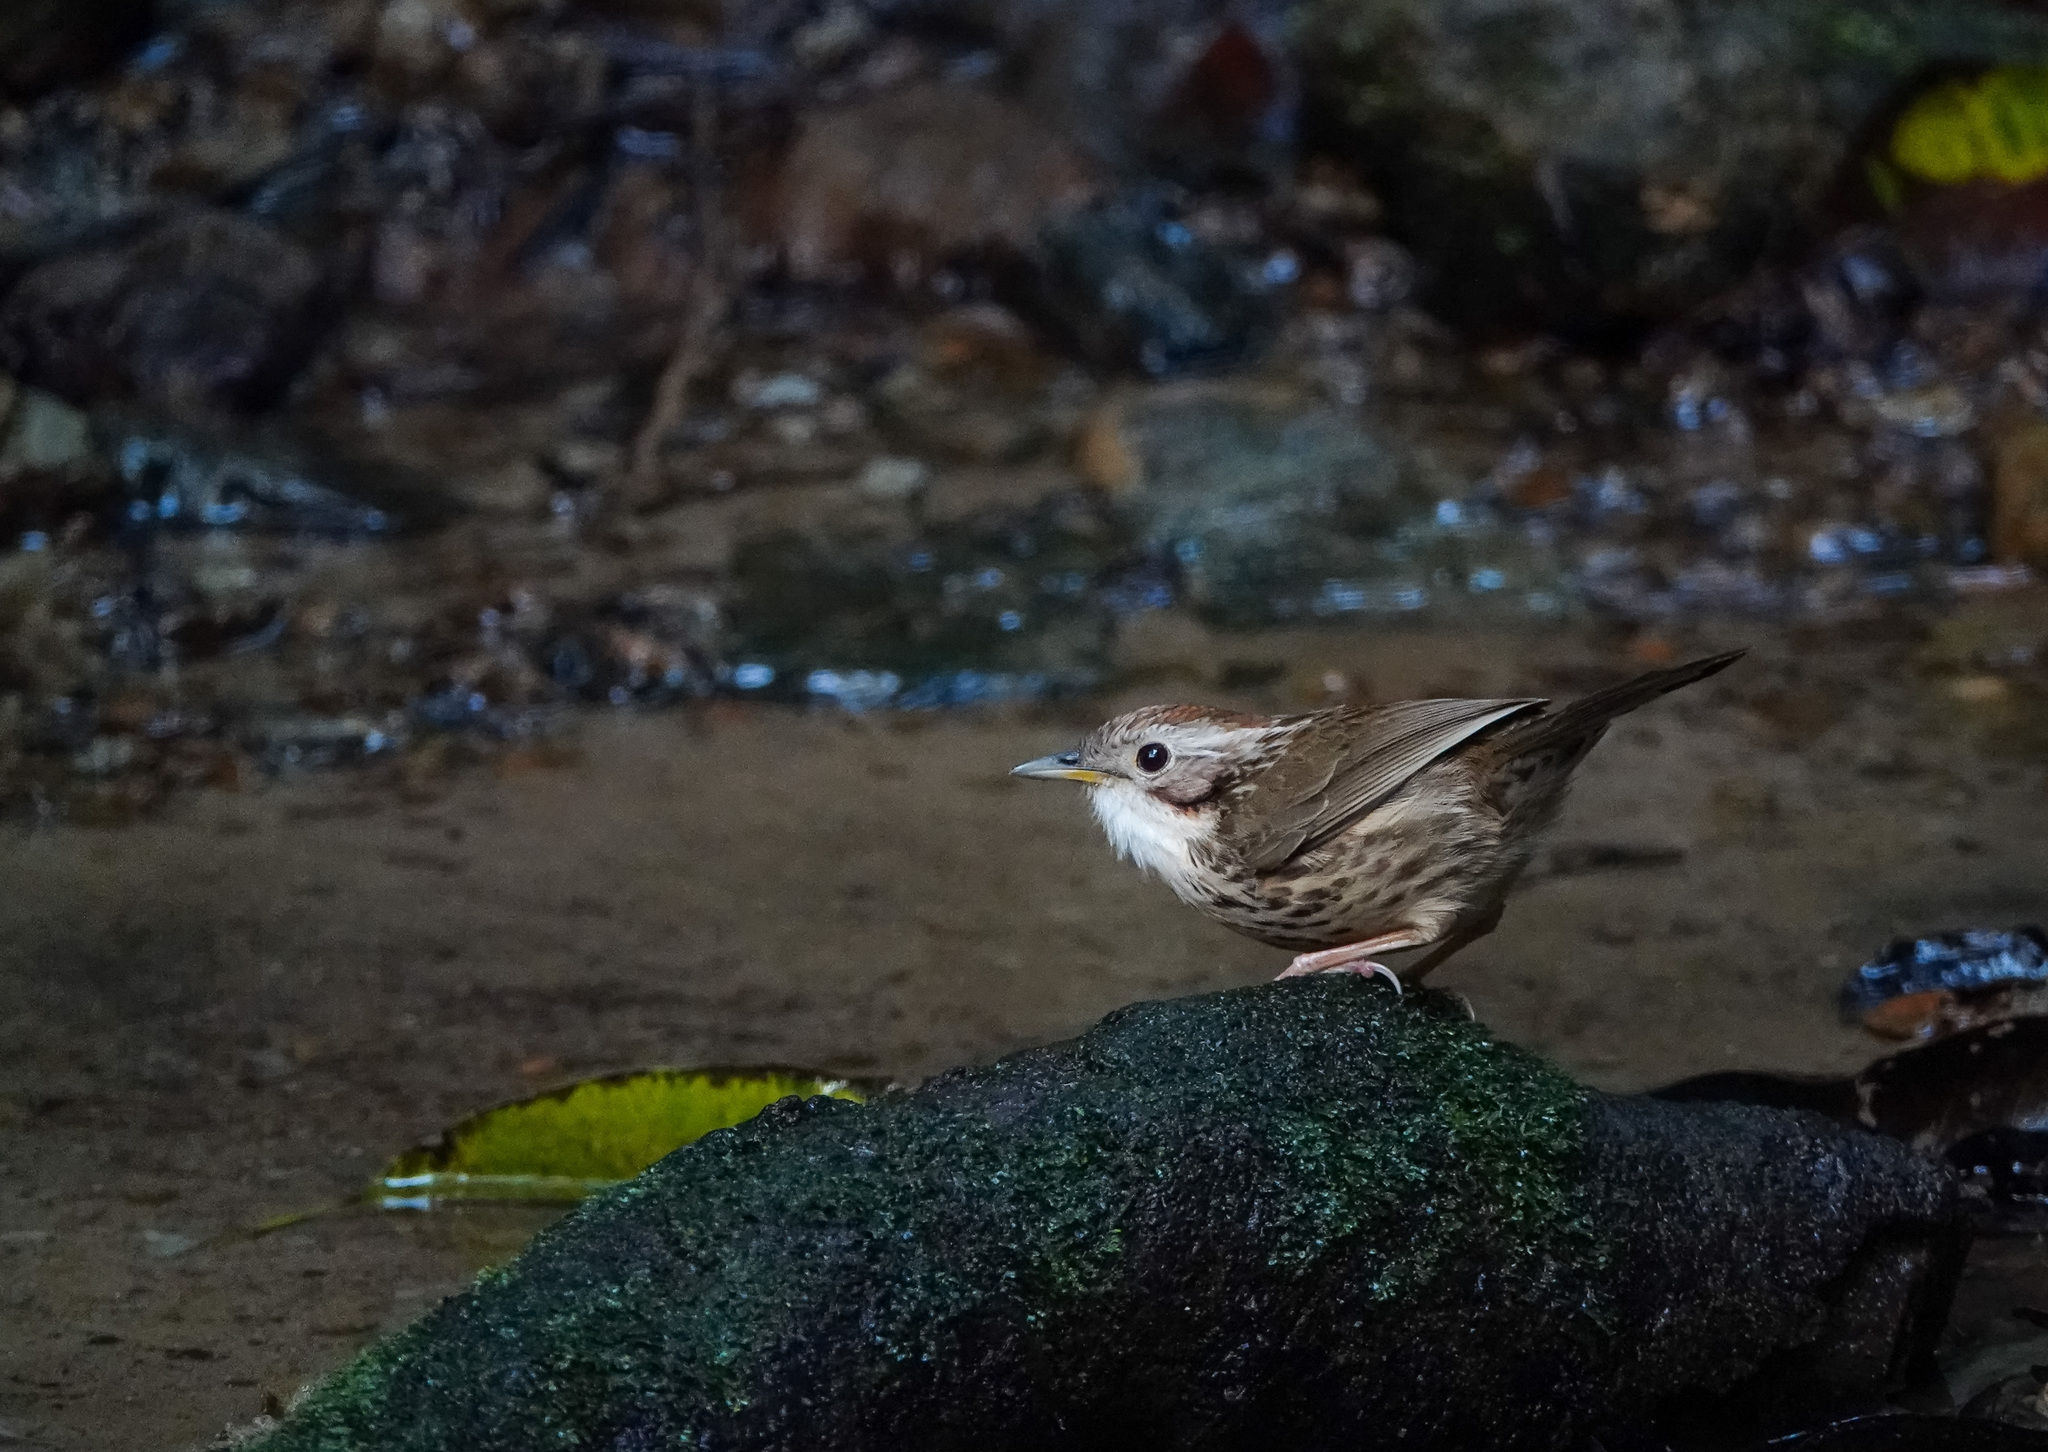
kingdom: Animalia
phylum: Chordata
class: Aves
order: Passeriformes
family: Pellorneidae
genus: Pellorneum
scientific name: Pellorneum ruficeps
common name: Puff-throated babbler
